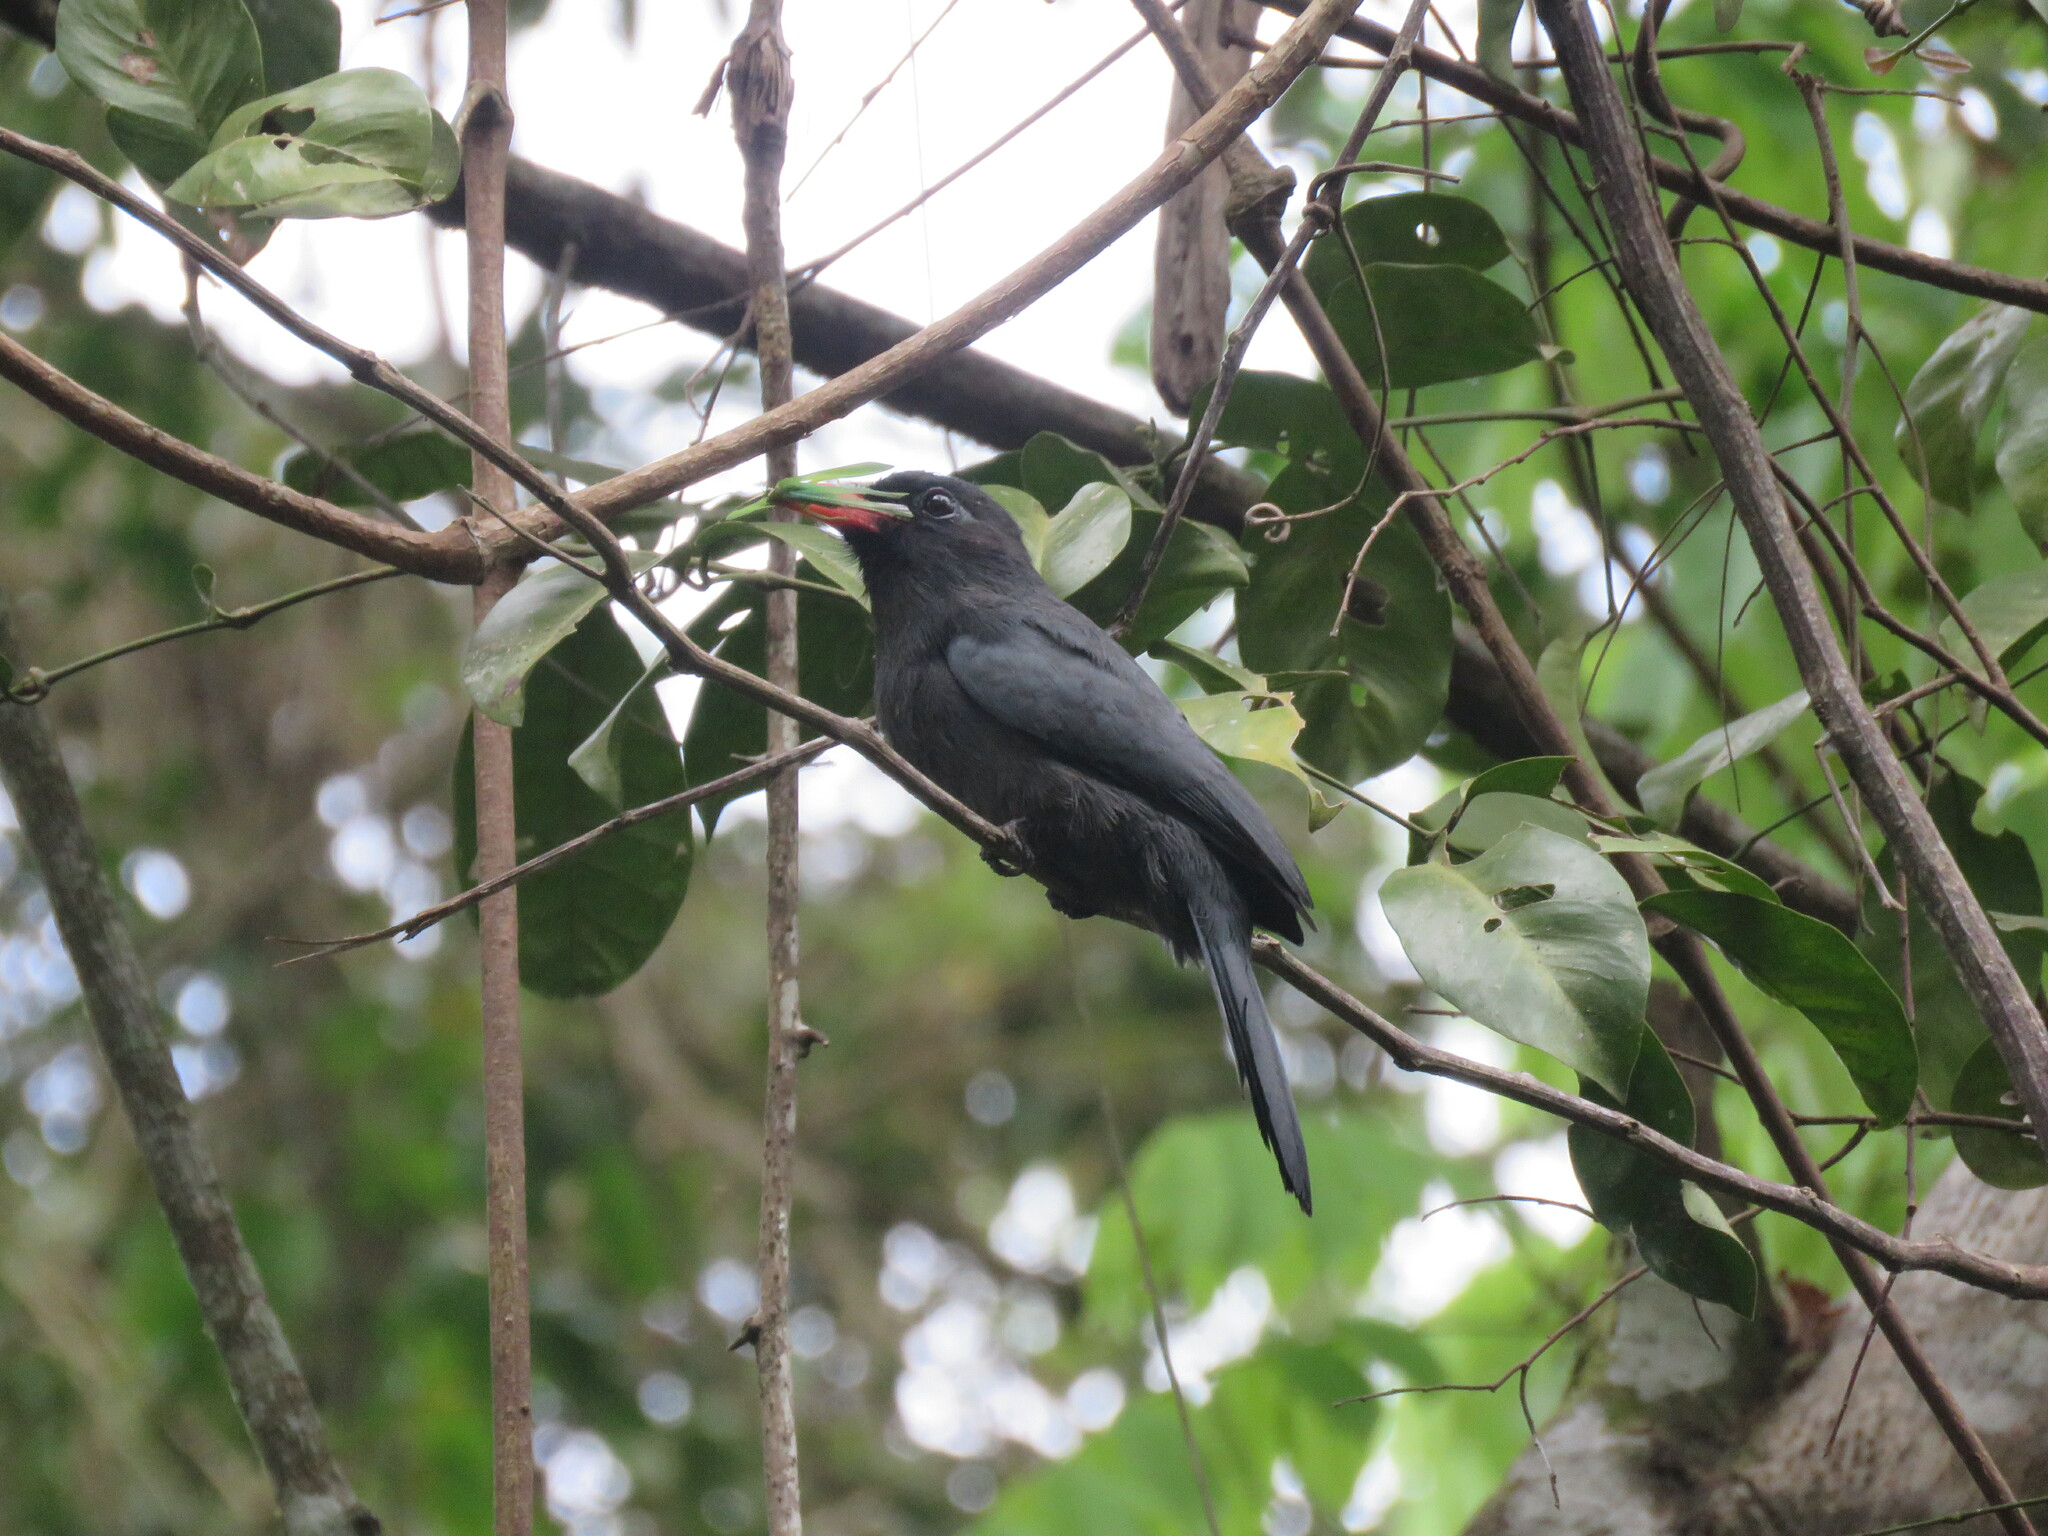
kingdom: Animalia
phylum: Chordata
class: Aves
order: Piciformes
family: Bucconidae
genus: Monasa
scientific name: Monasa nigrifrons
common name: Black-fronted nunbird
